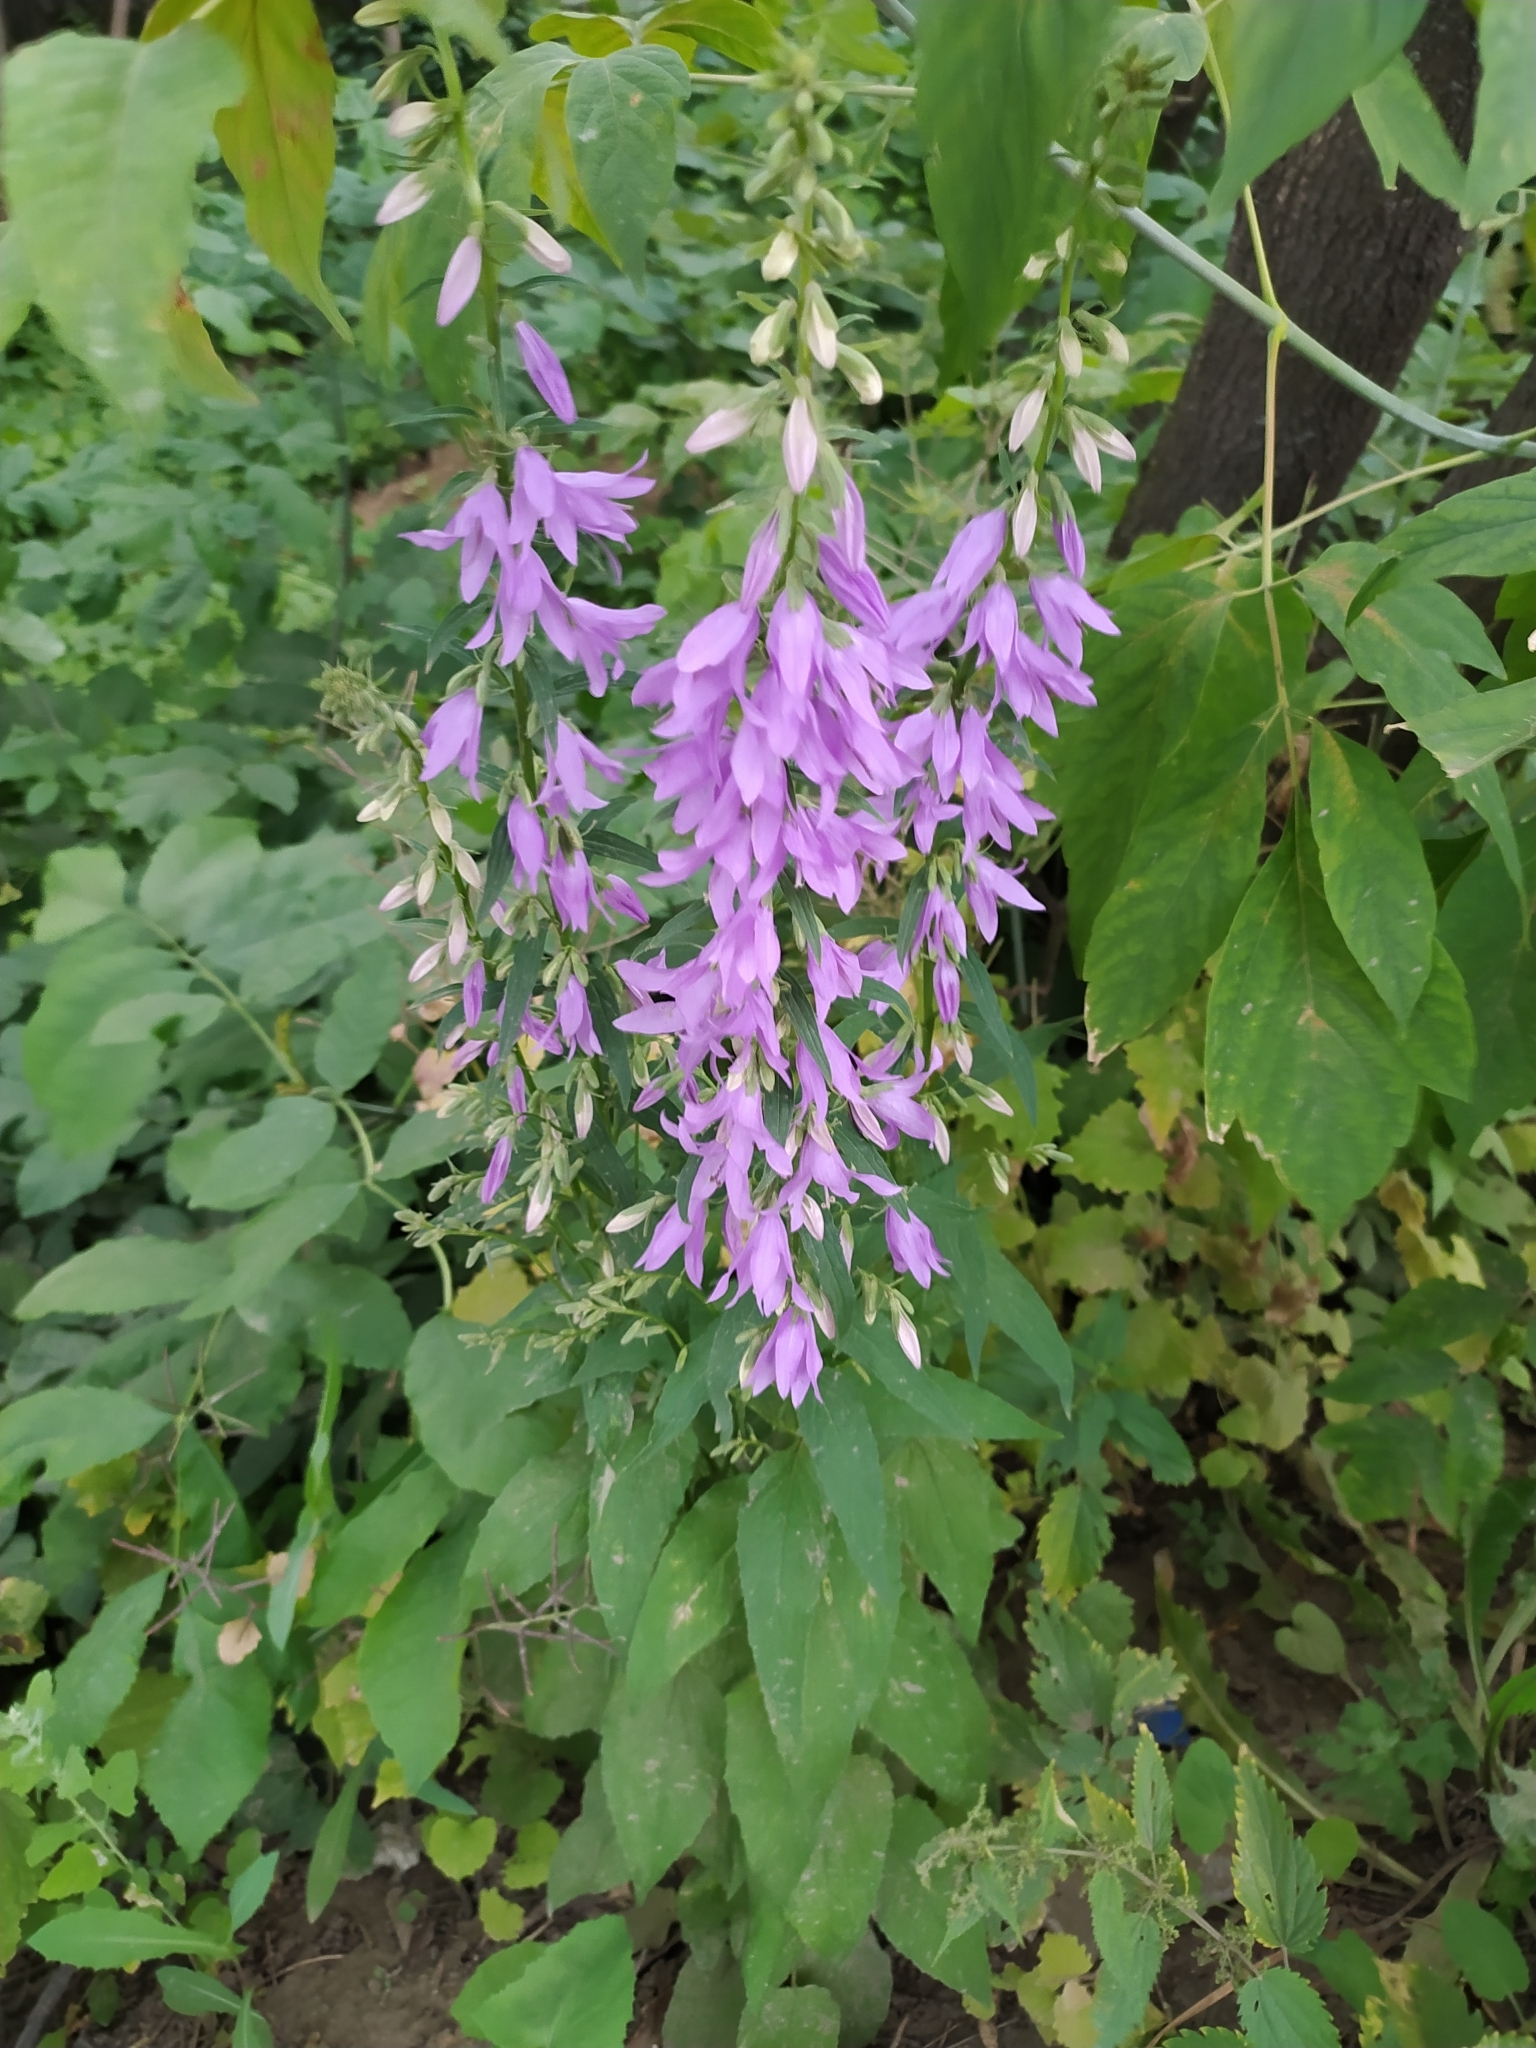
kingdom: Plantae
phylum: Tracheophyta
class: Magnoliopsida
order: Asterales
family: Campanulaceae
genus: Campanula
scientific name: Campanula rapunculoides
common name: Creeping bellflower
